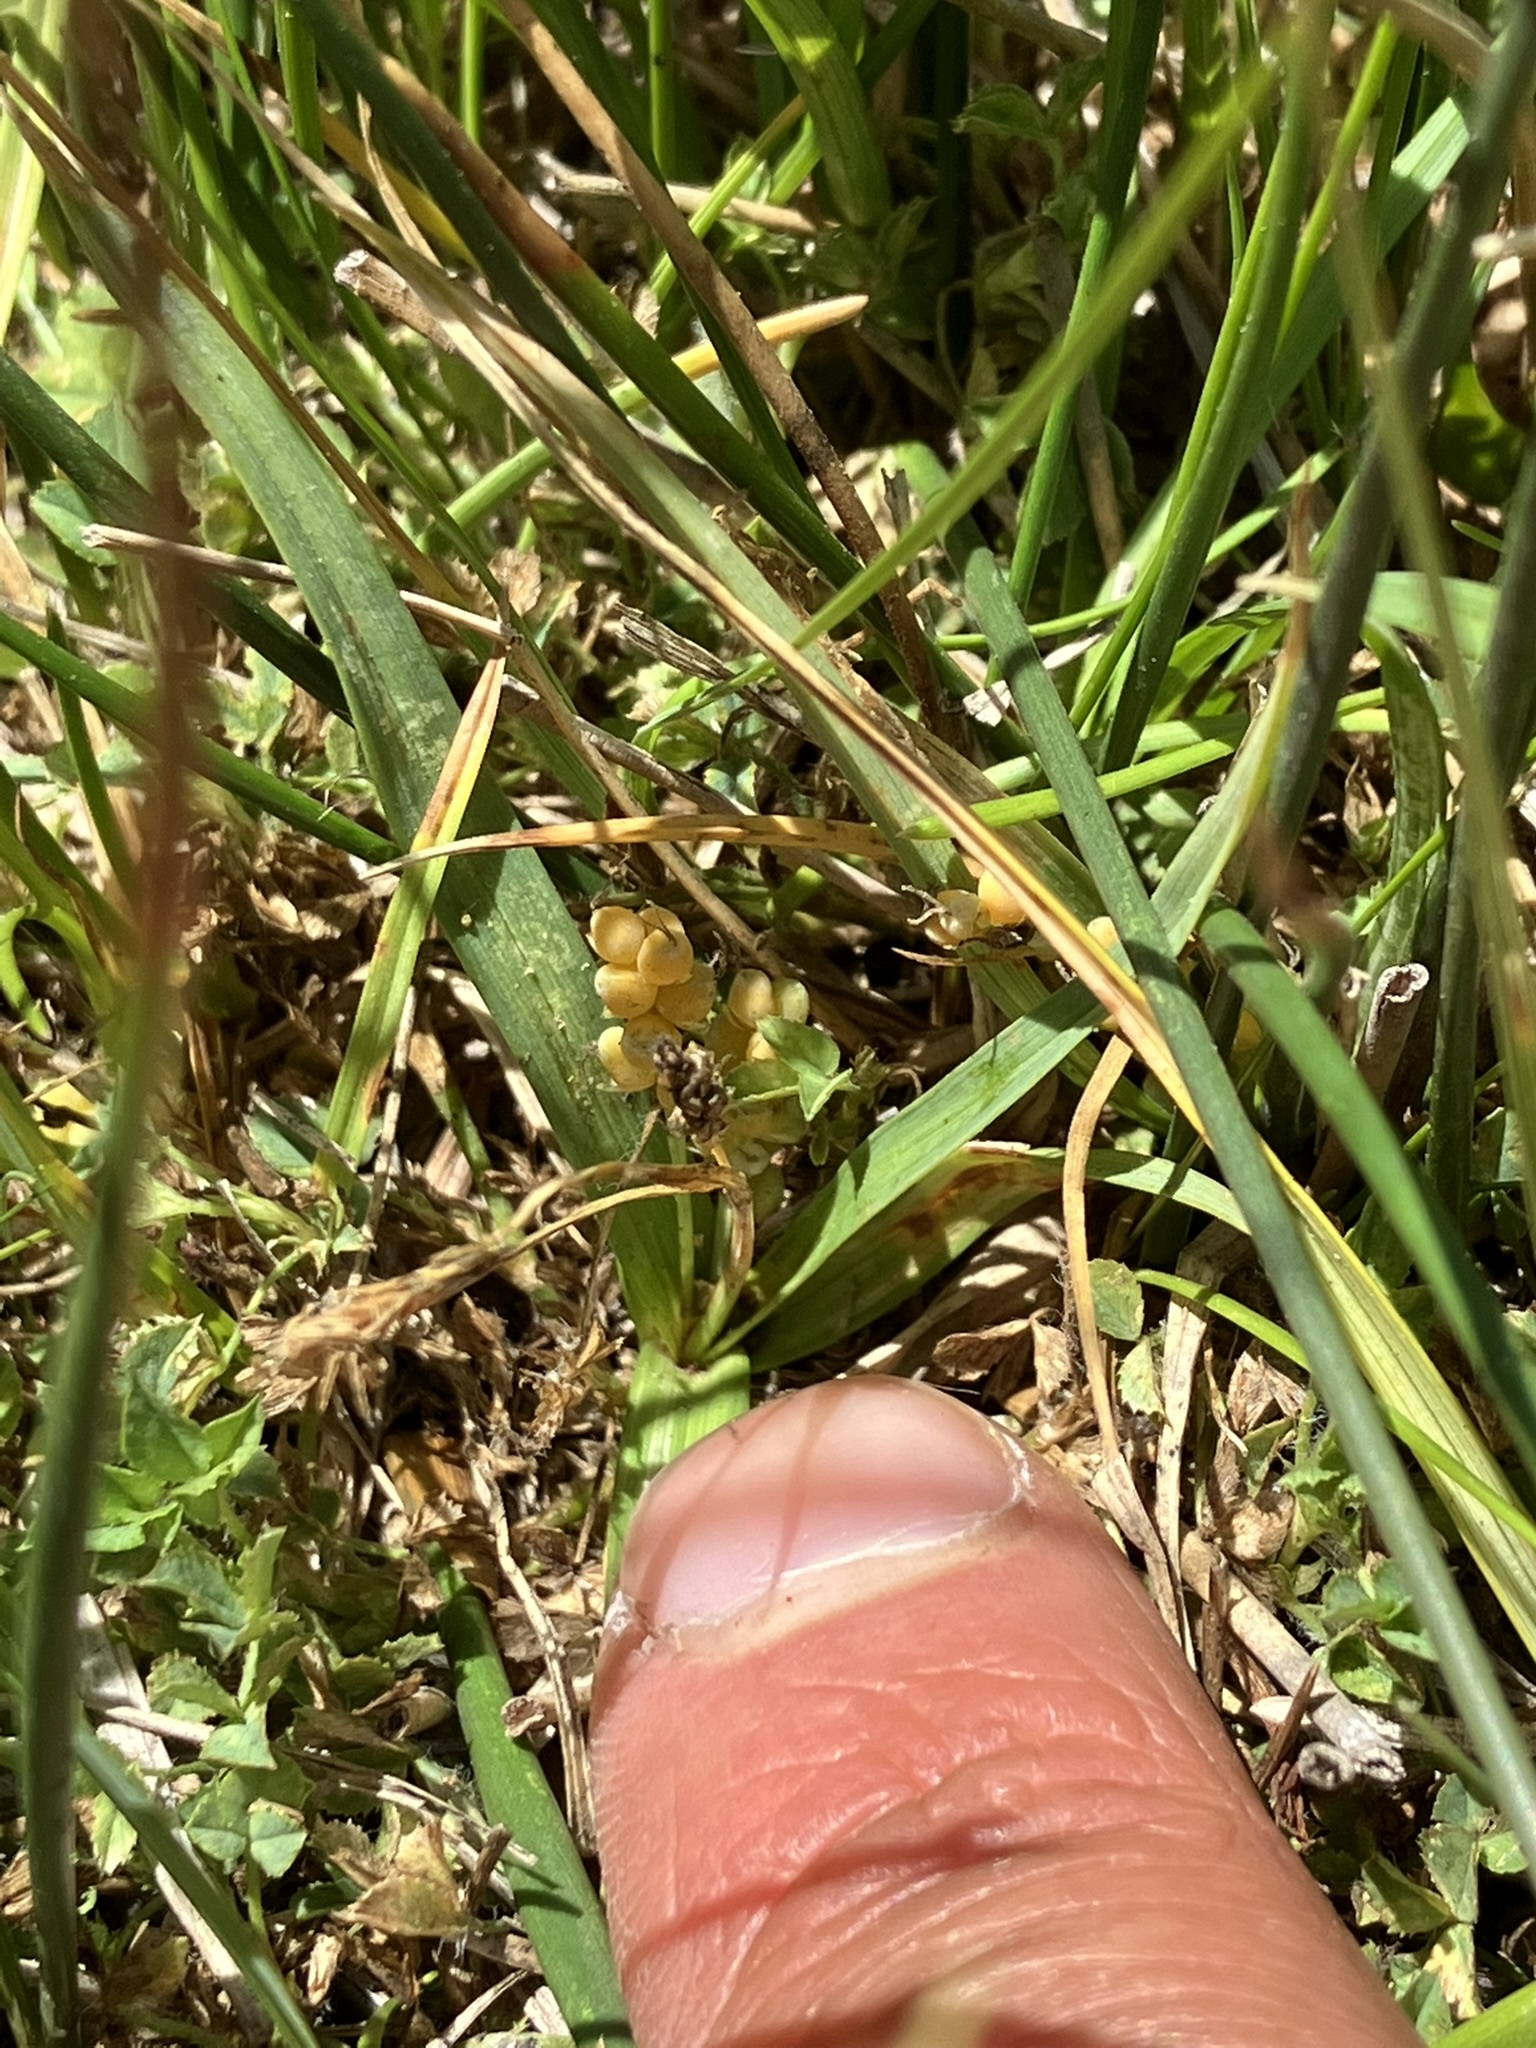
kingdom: Plantae
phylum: Tracheophyta
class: Liliopsida
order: Poales
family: Cyperaceae
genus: Carex
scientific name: Carex aurea
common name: Golden sedge
